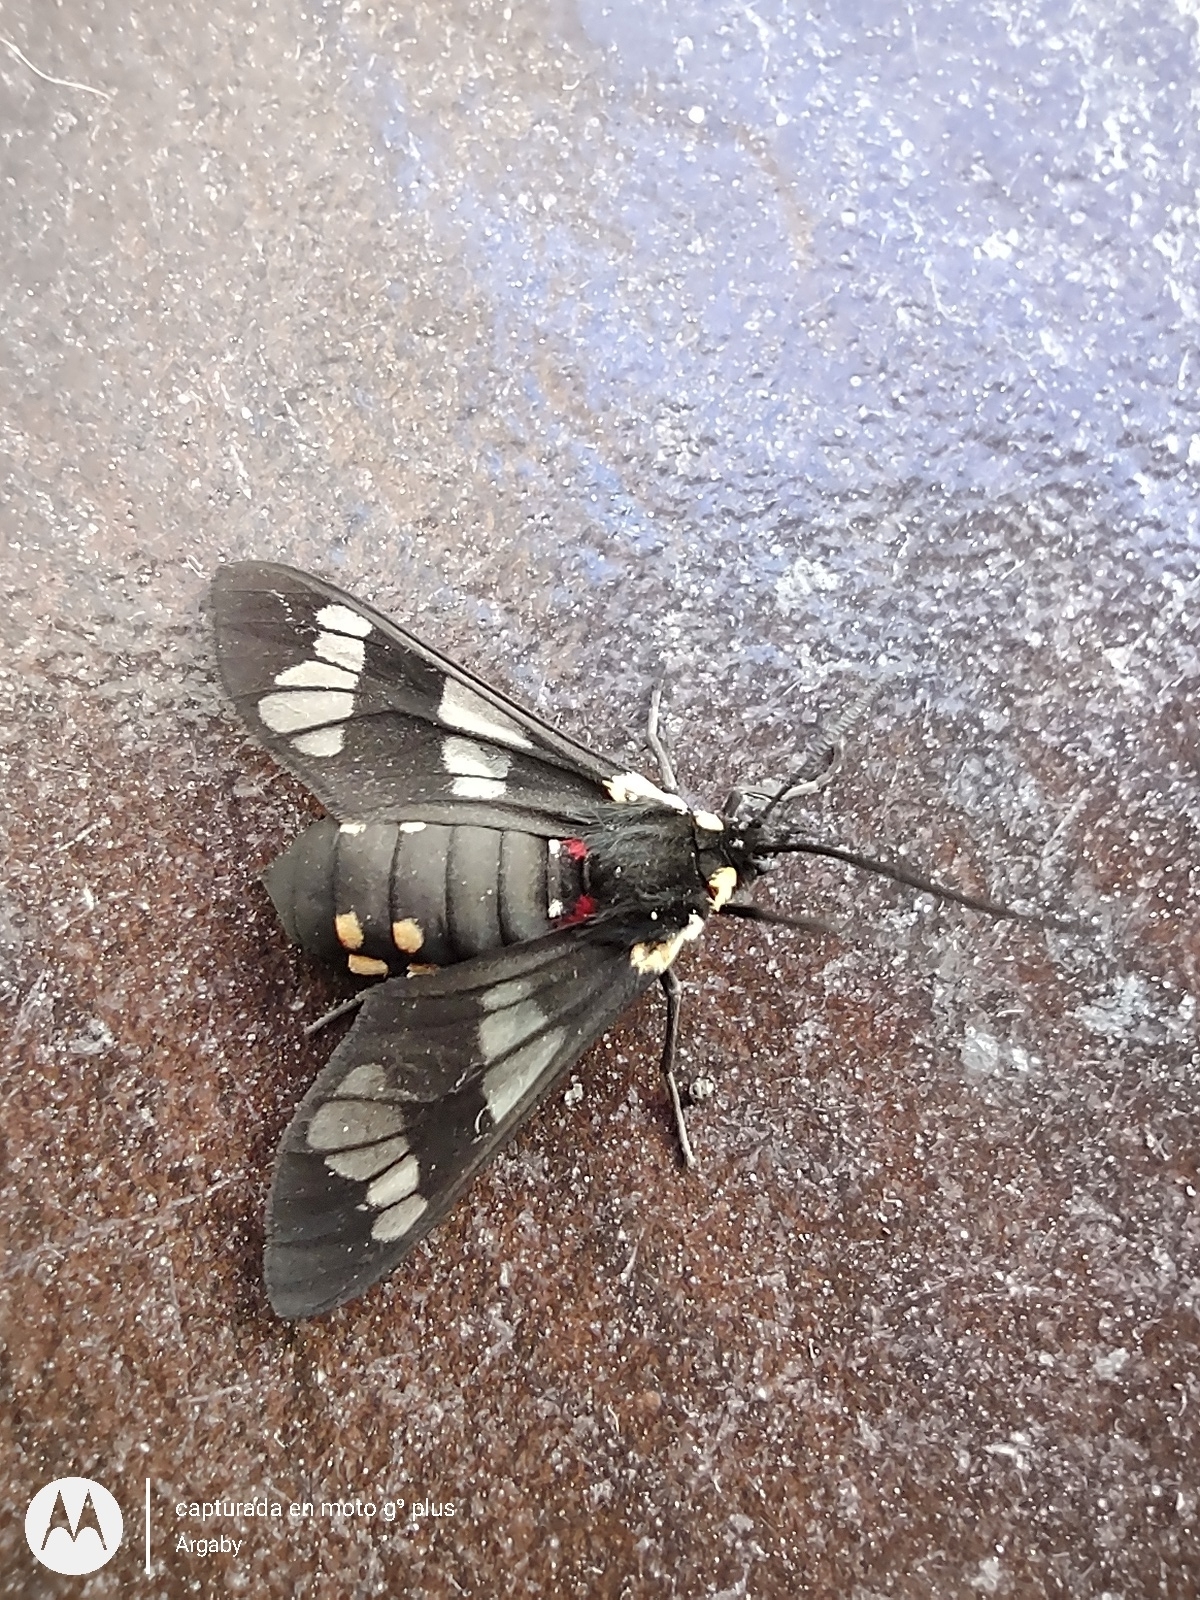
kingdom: Animalia
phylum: Arthropoda
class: Insecta
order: Lepidoptera
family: Erebidae
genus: Eurata
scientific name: Eurata hermione
